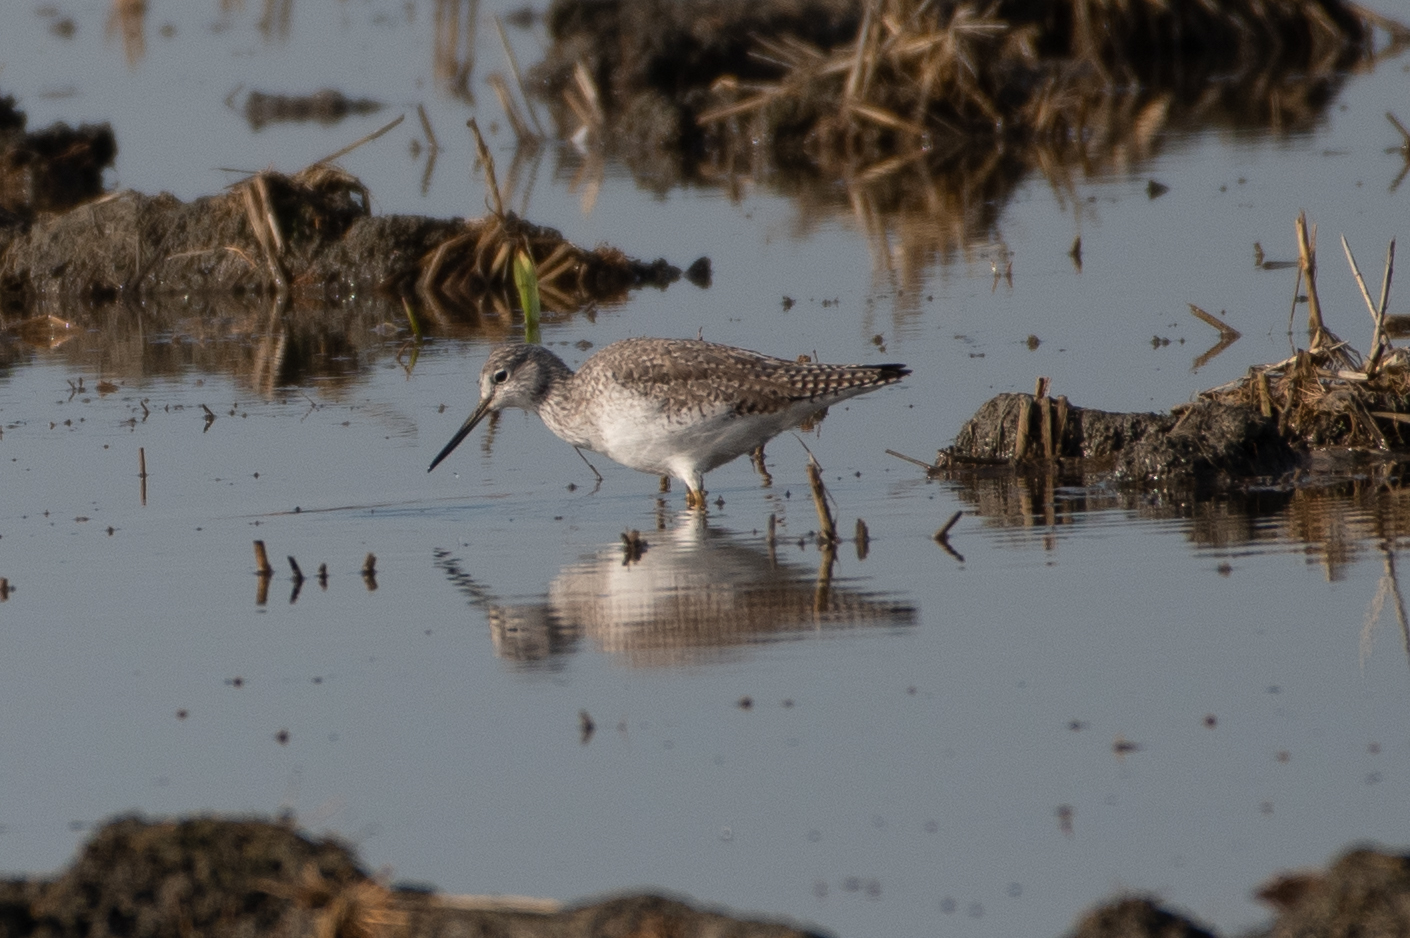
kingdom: Animalia
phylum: Chordata
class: Aves
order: Charadriiformes
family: Scolopacidae
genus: Tringa
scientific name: Tringa melanoleuca
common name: Greater yellowlegs
